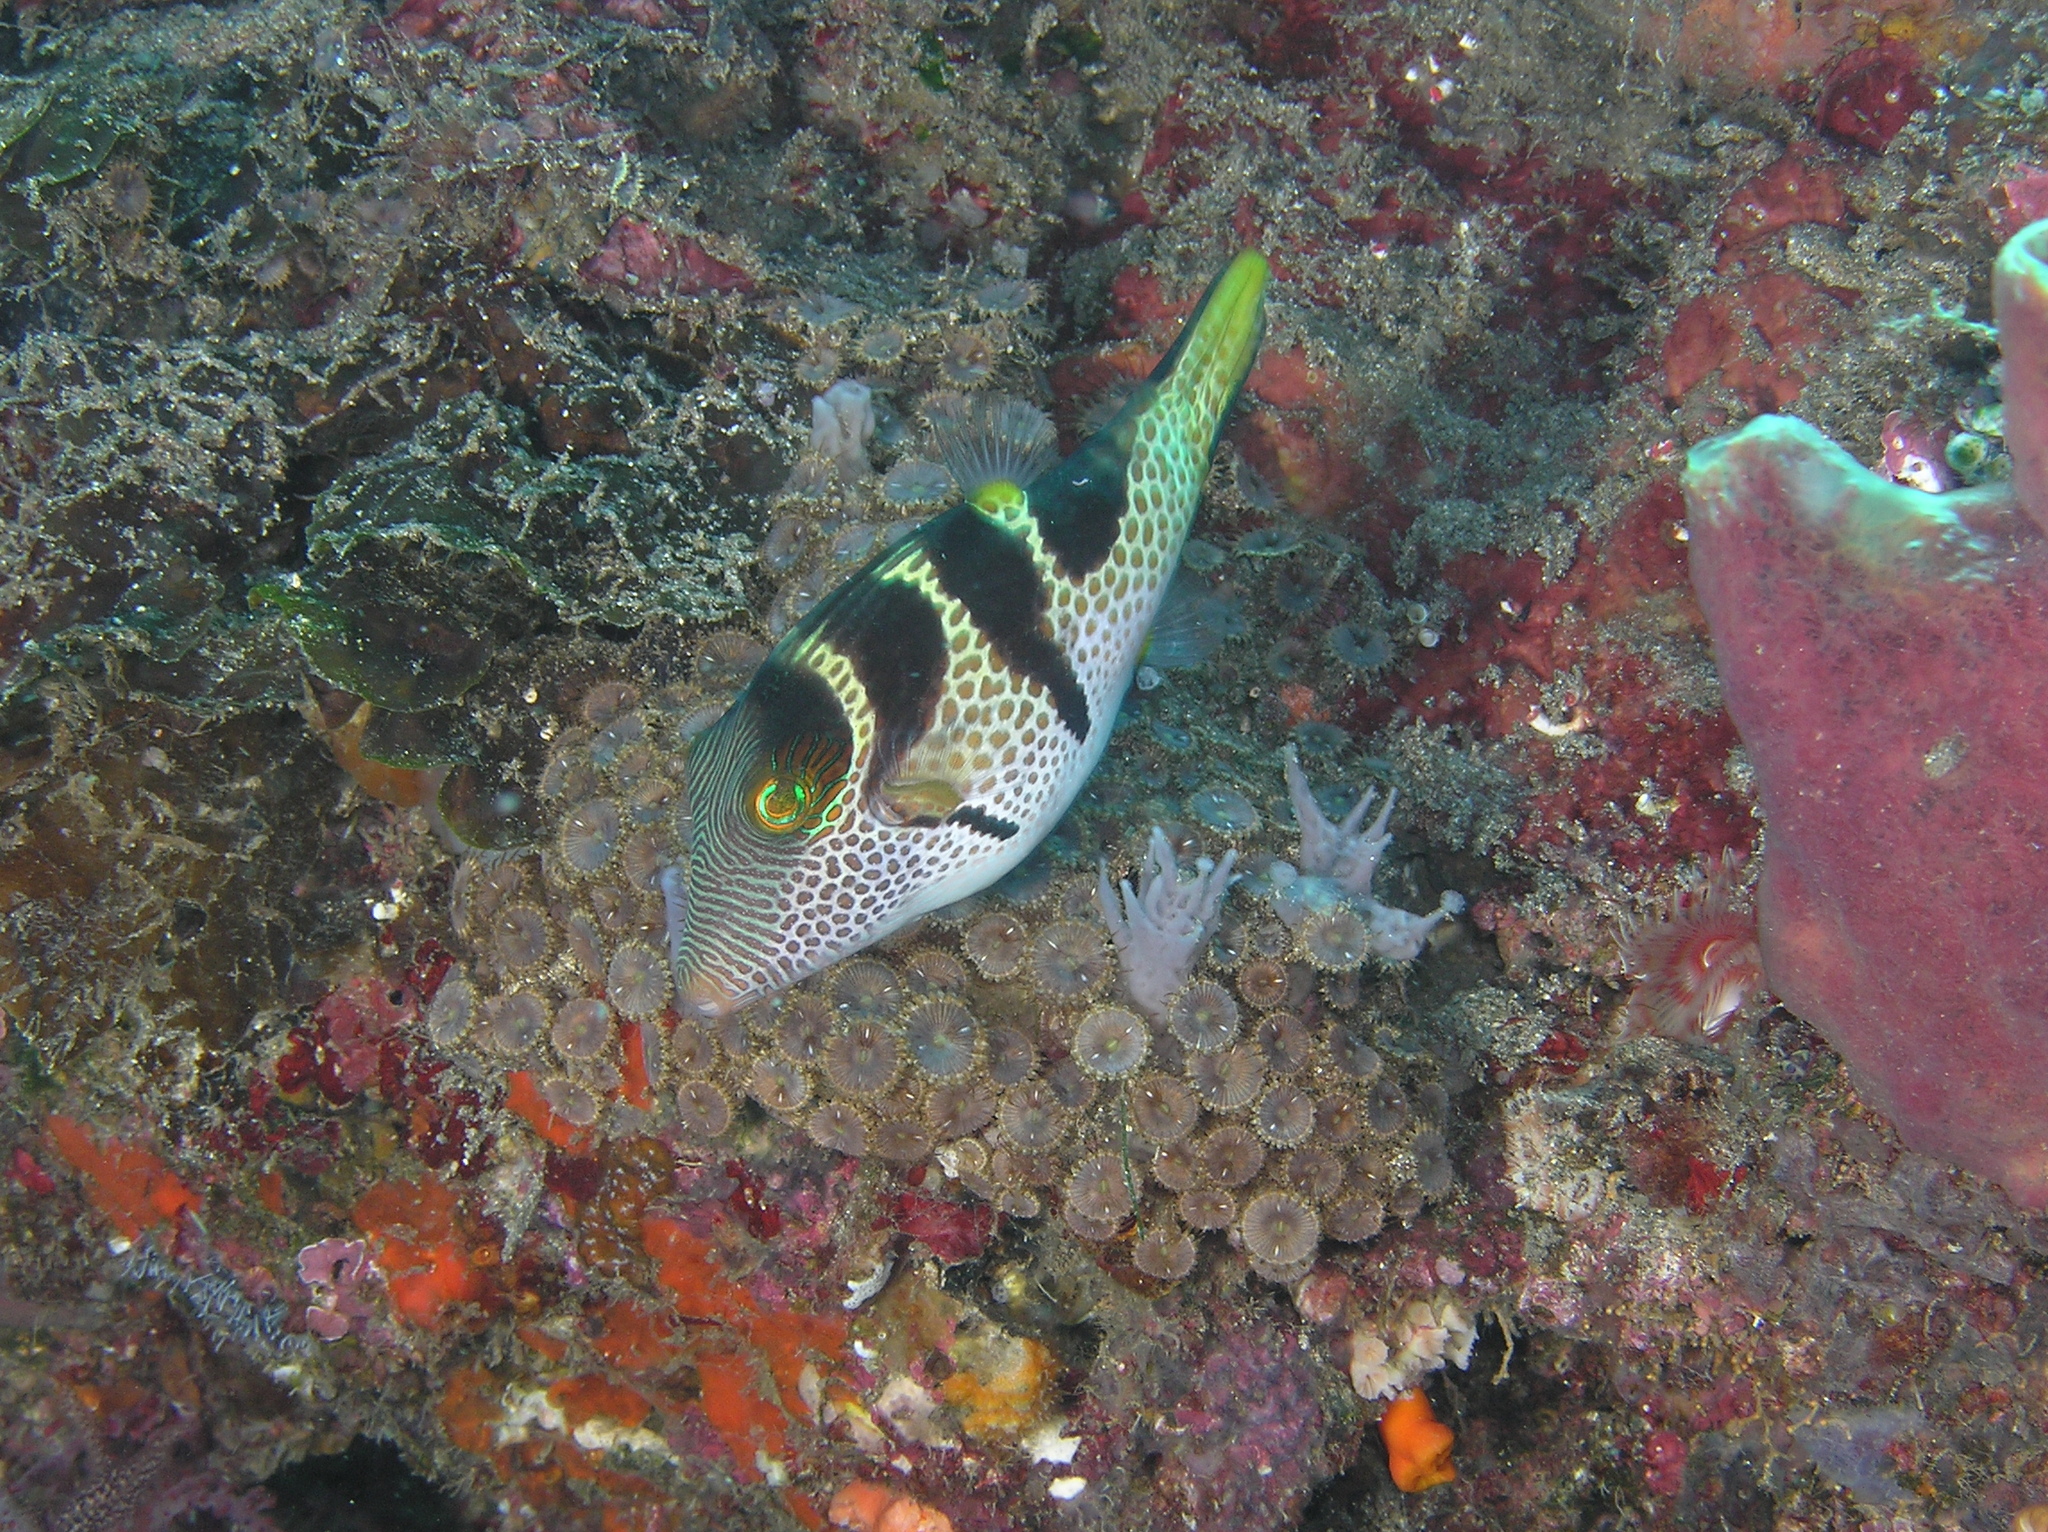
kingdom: Animalia
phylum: Chordata
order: Tetraodontiformes
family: Tetraodontidae
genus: Canthigaster
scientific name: Canthigaster valentini
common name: Banded toby
